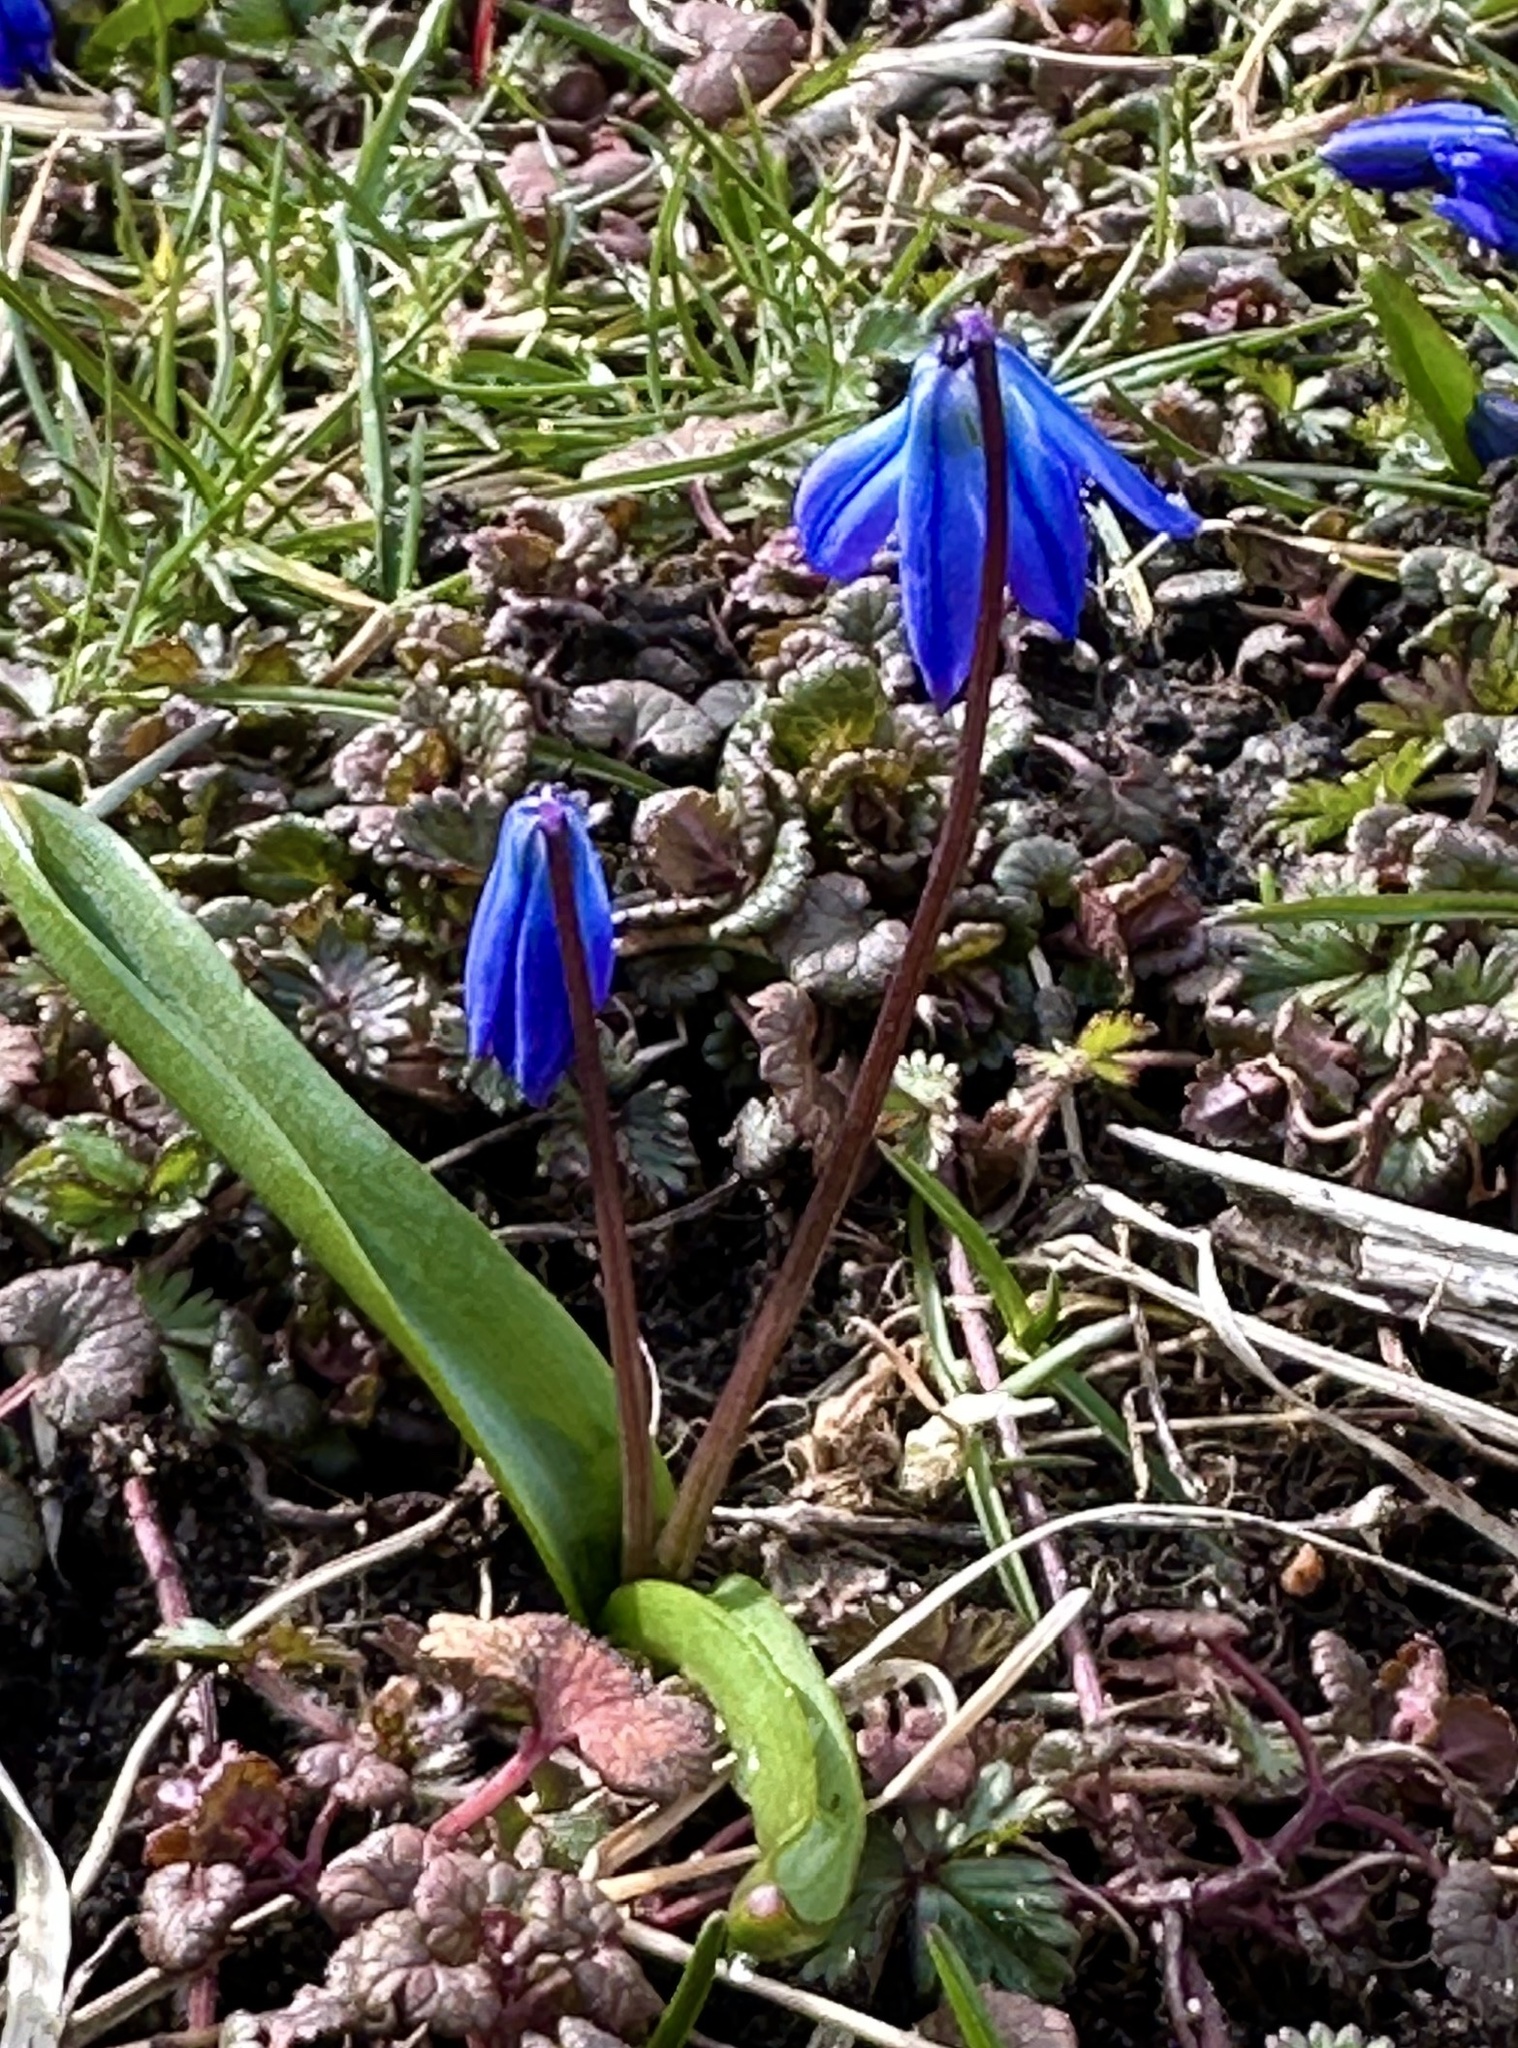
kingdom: Plantae
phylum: Tracheophyta
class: Liliopsida
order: Asparagales
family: Asparagaceae
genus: Scilla
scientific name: Scilla siberica
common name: Siberian squill
